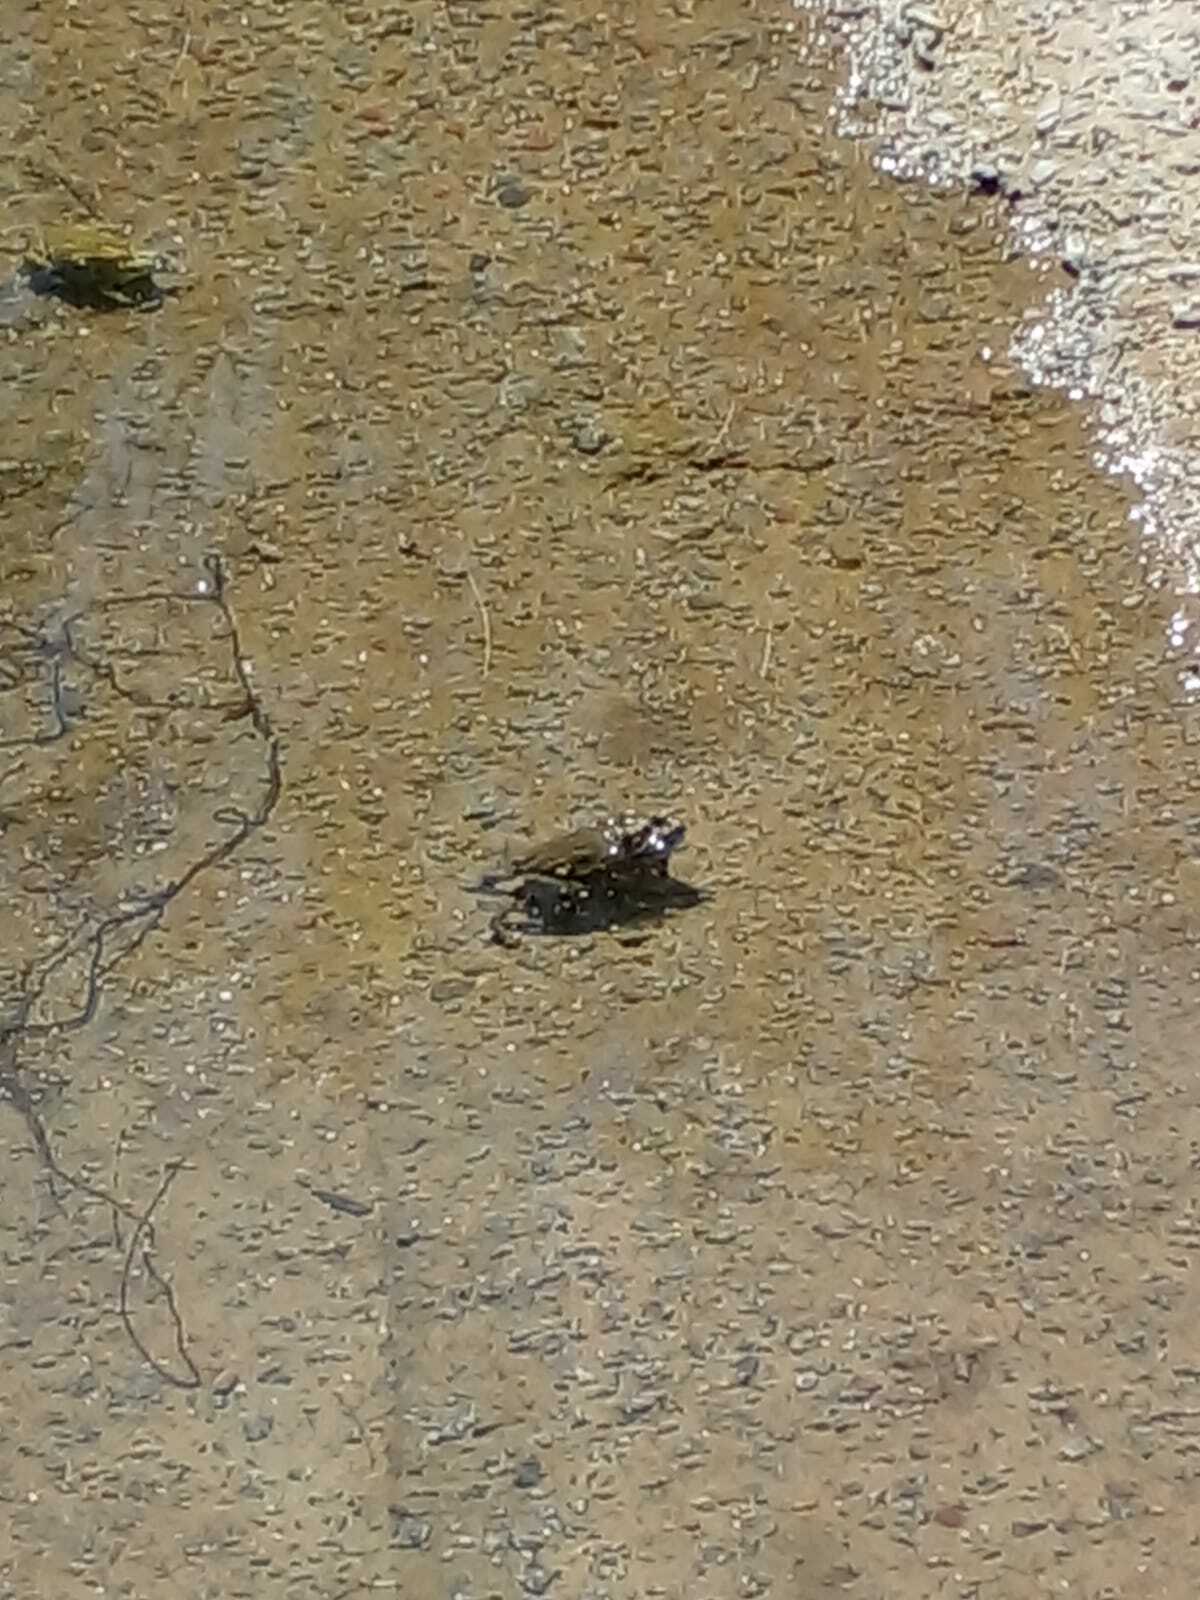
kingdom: Animalia
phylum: Chordata
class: Amphibia
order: Anura
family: Bufonidae
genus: Rhinella
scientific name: Rhinella arenarum
